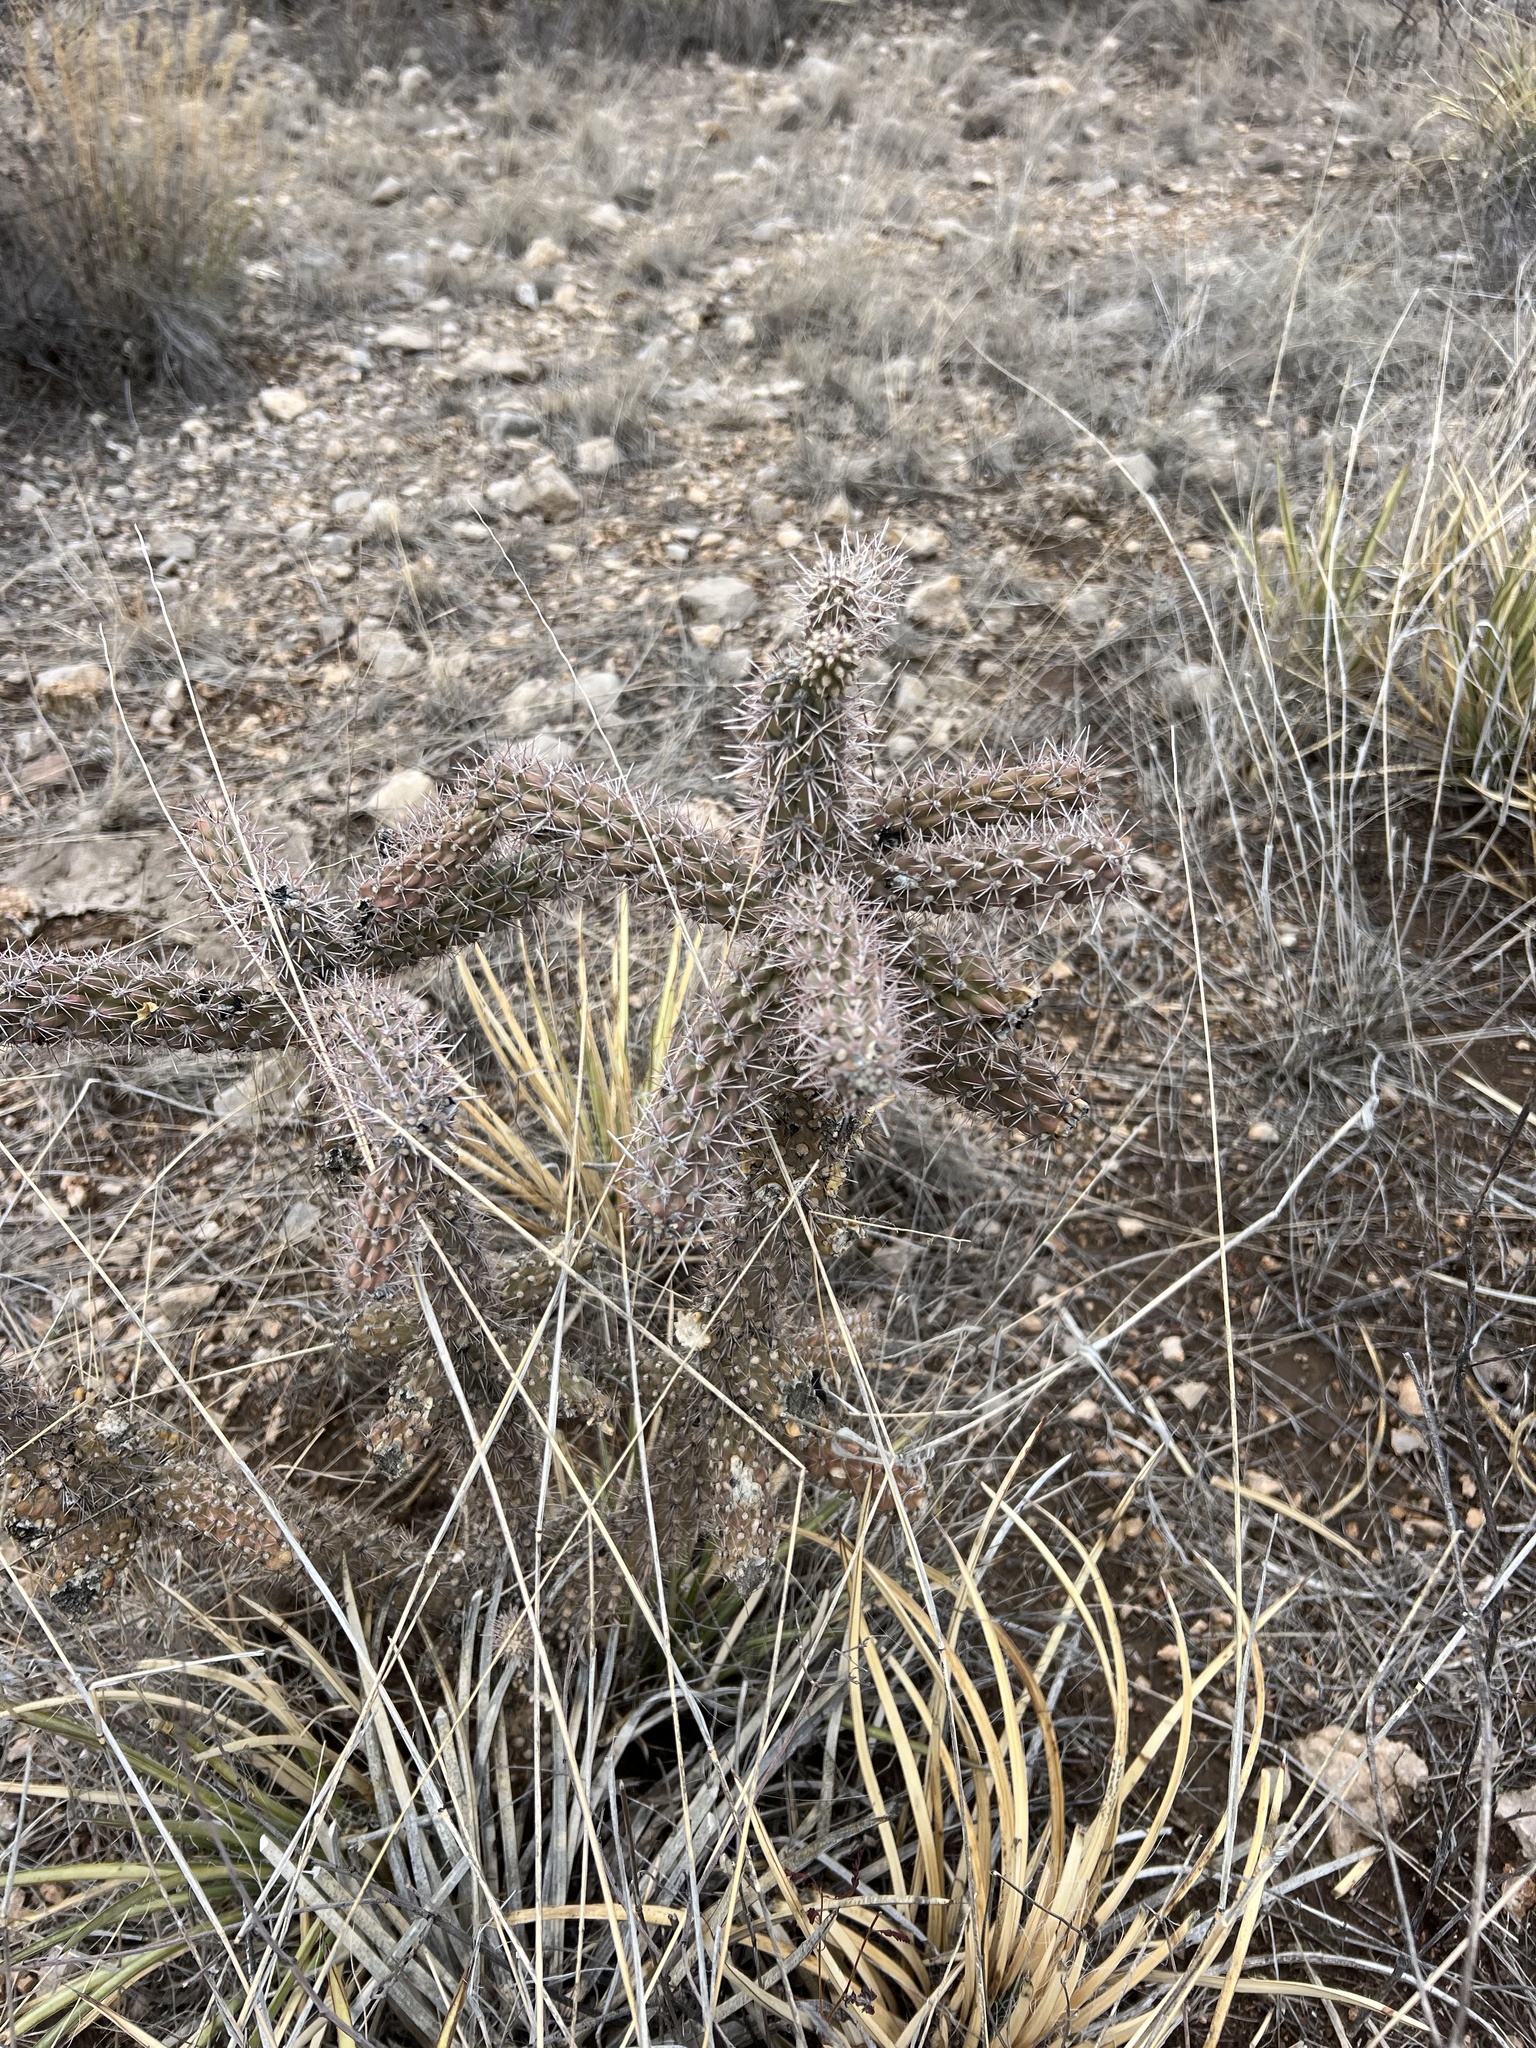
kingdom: Plantae
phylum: Tracheophyta
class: Magnoliopsida
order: Caryophyllales
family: Cactaceae
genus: Cylindropuntia
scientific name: Cylindropuntia imbricata
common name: Candelabrum cactus
